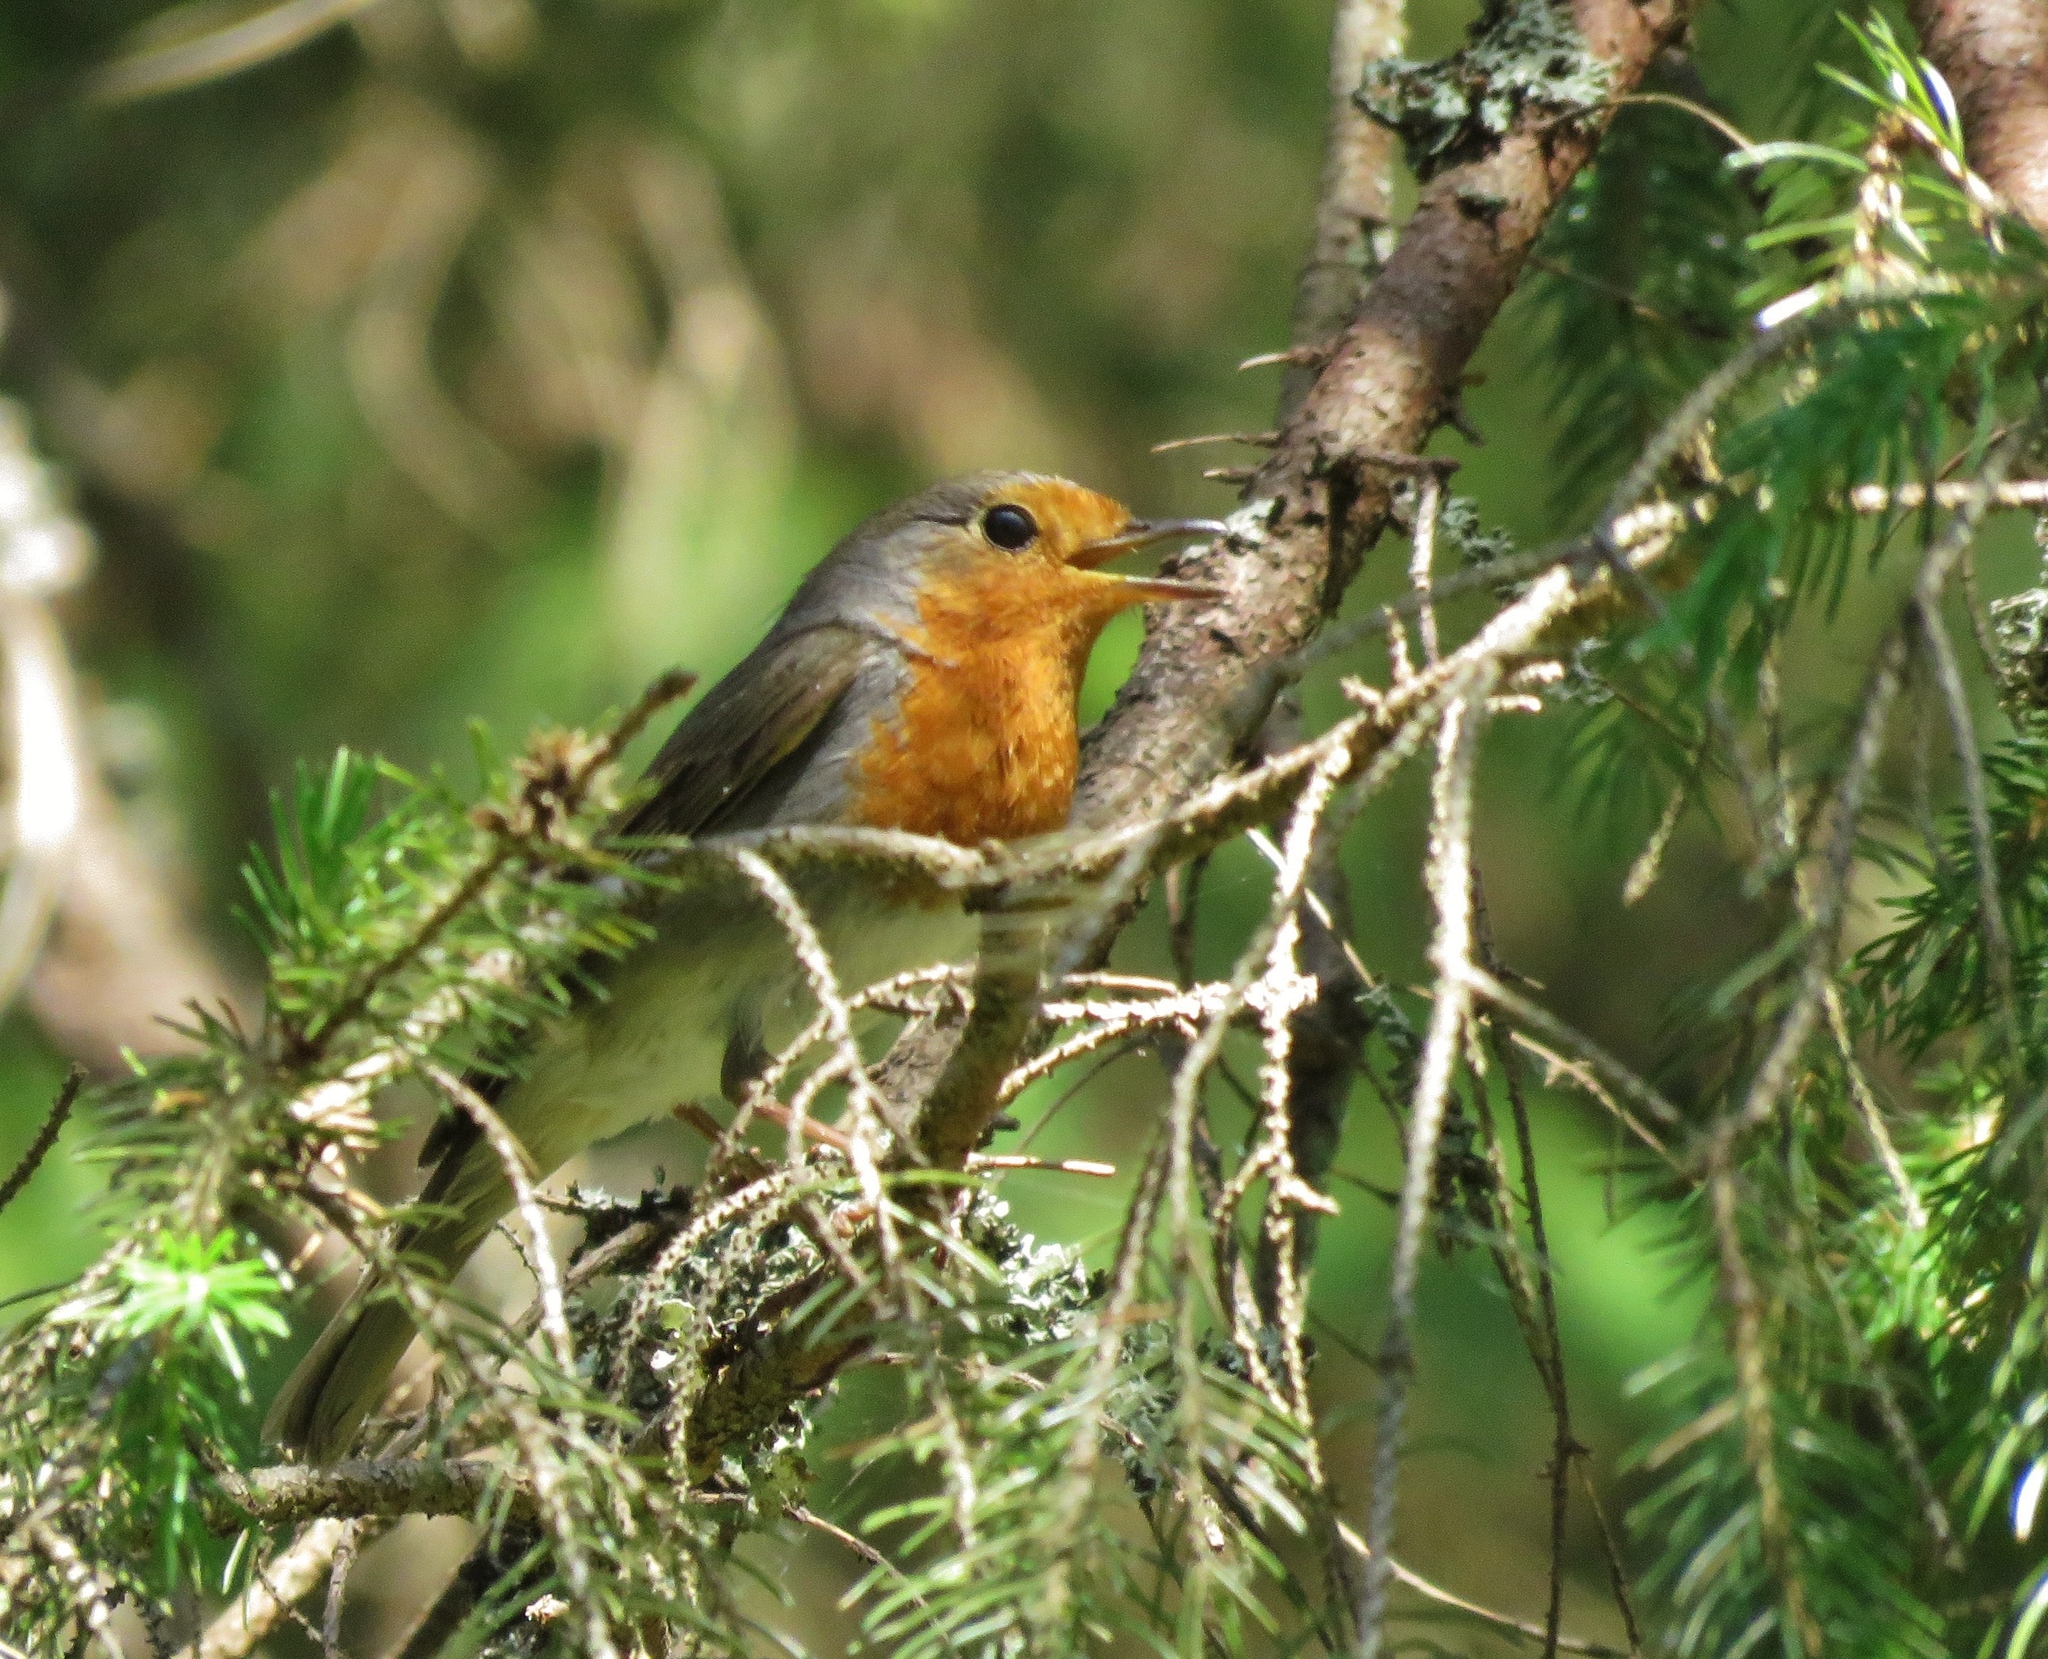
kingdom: Animalia
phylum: Chordata
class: Aves
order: Passeriformes
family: Muscicapidae
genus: Erithacus
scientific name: Erithacus rubecula
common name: European robin
